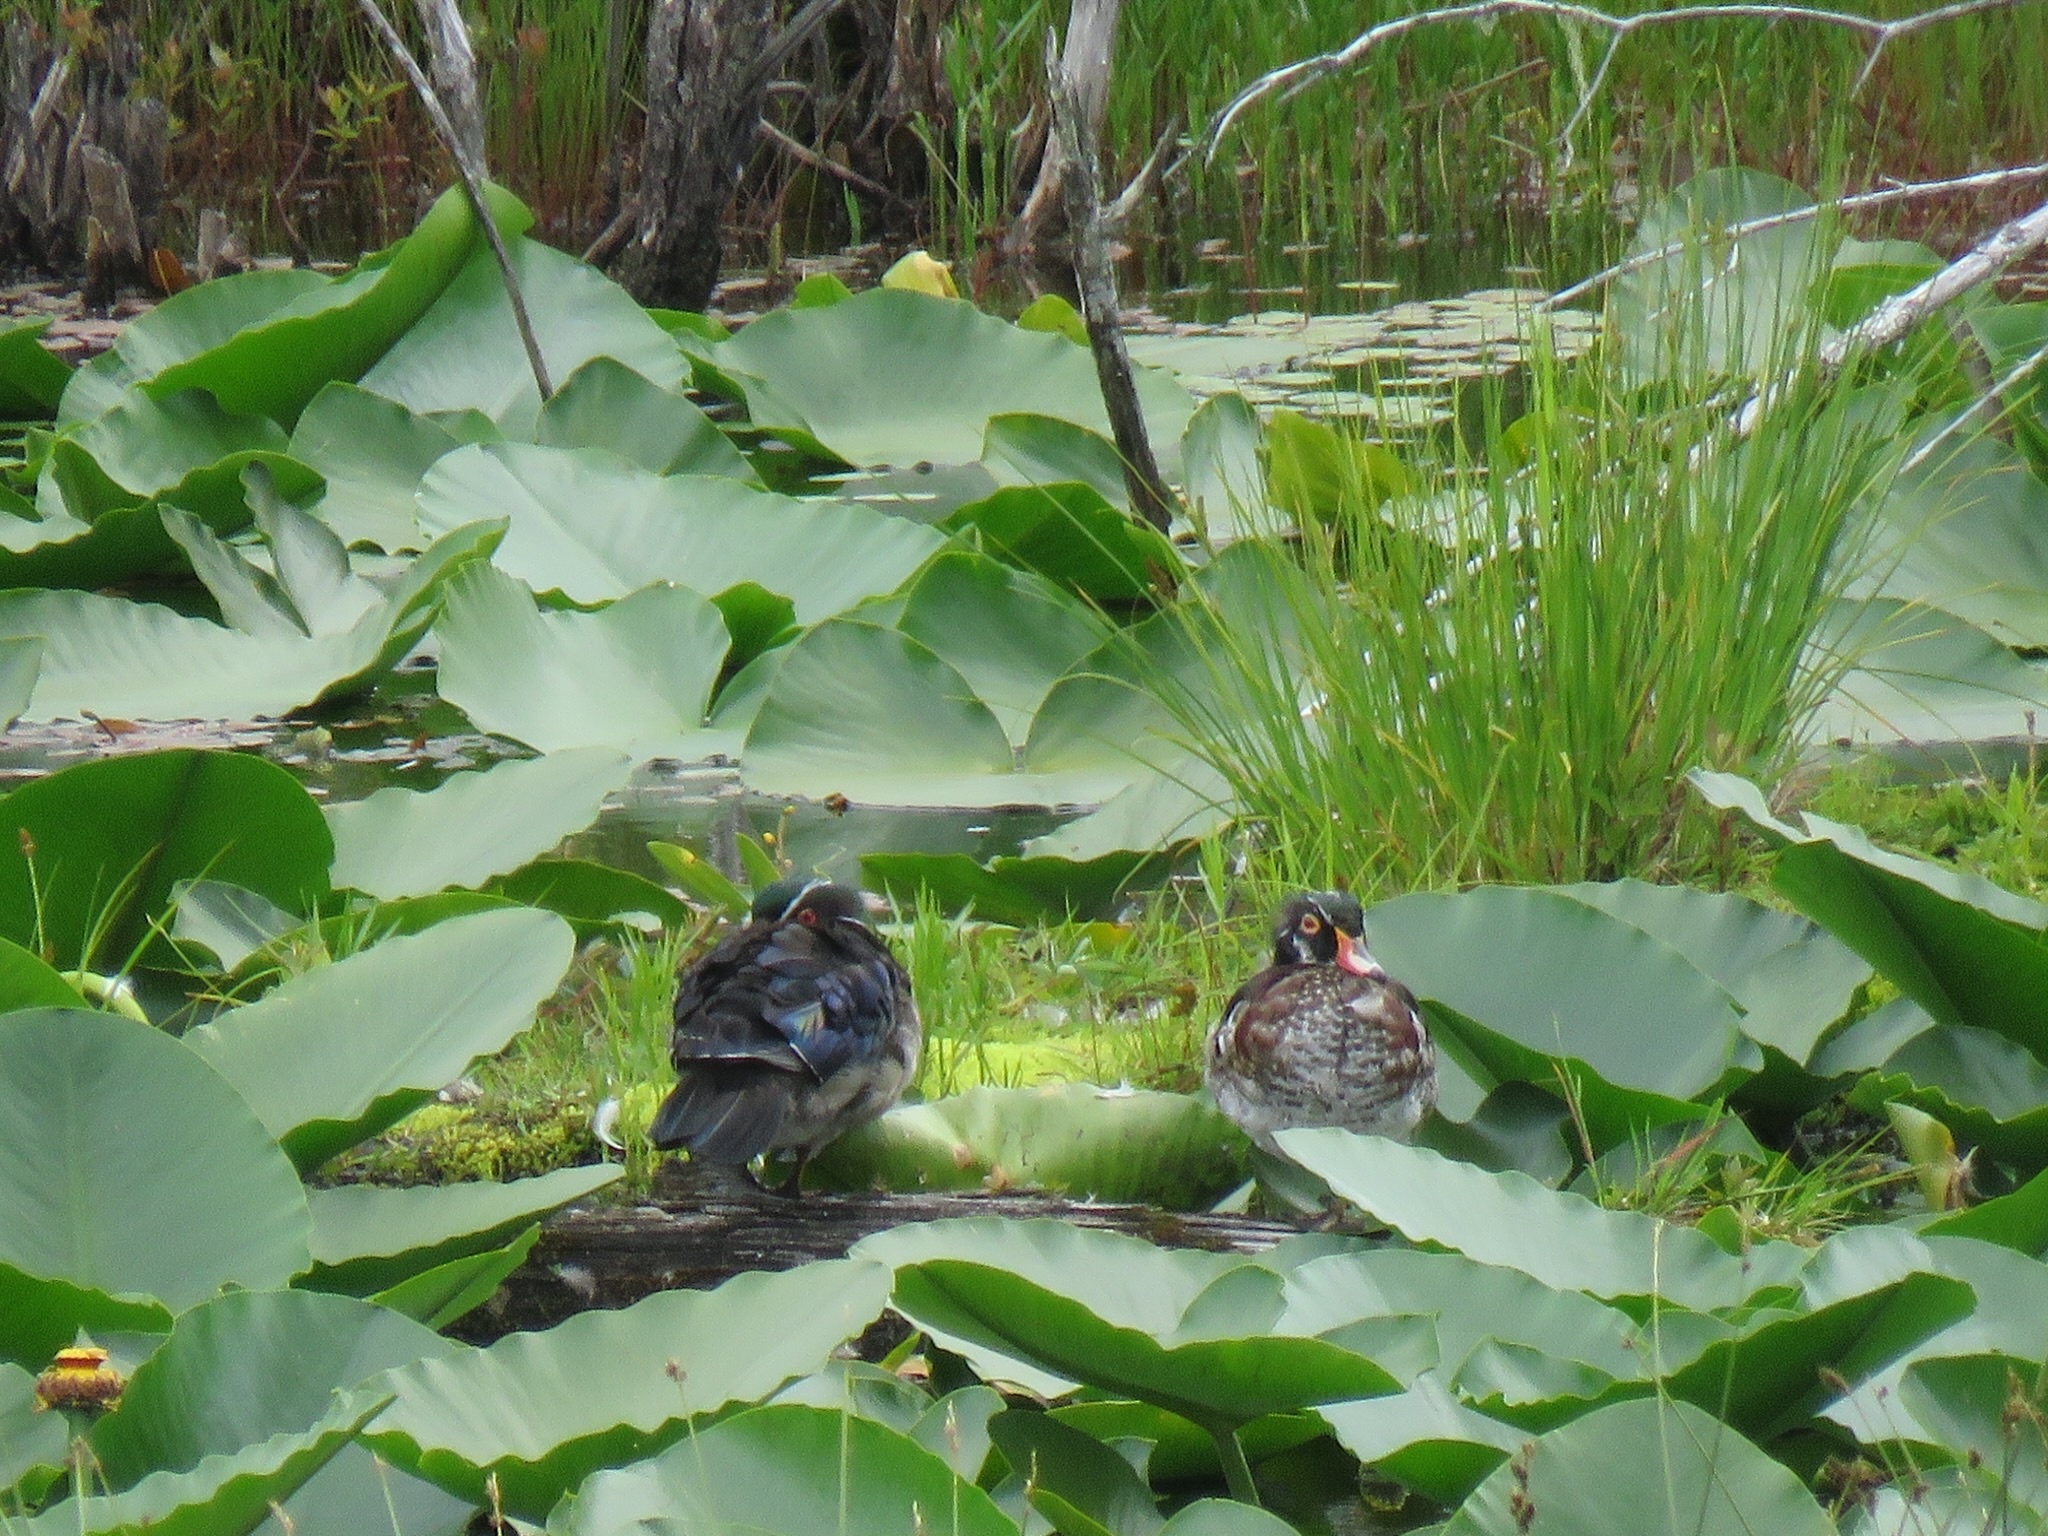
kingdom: Animalia
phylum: Chordata
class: Aves
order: Anseriformes
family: Anatidae
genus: Aix
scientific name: Aix sponsa
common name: Wood duck
